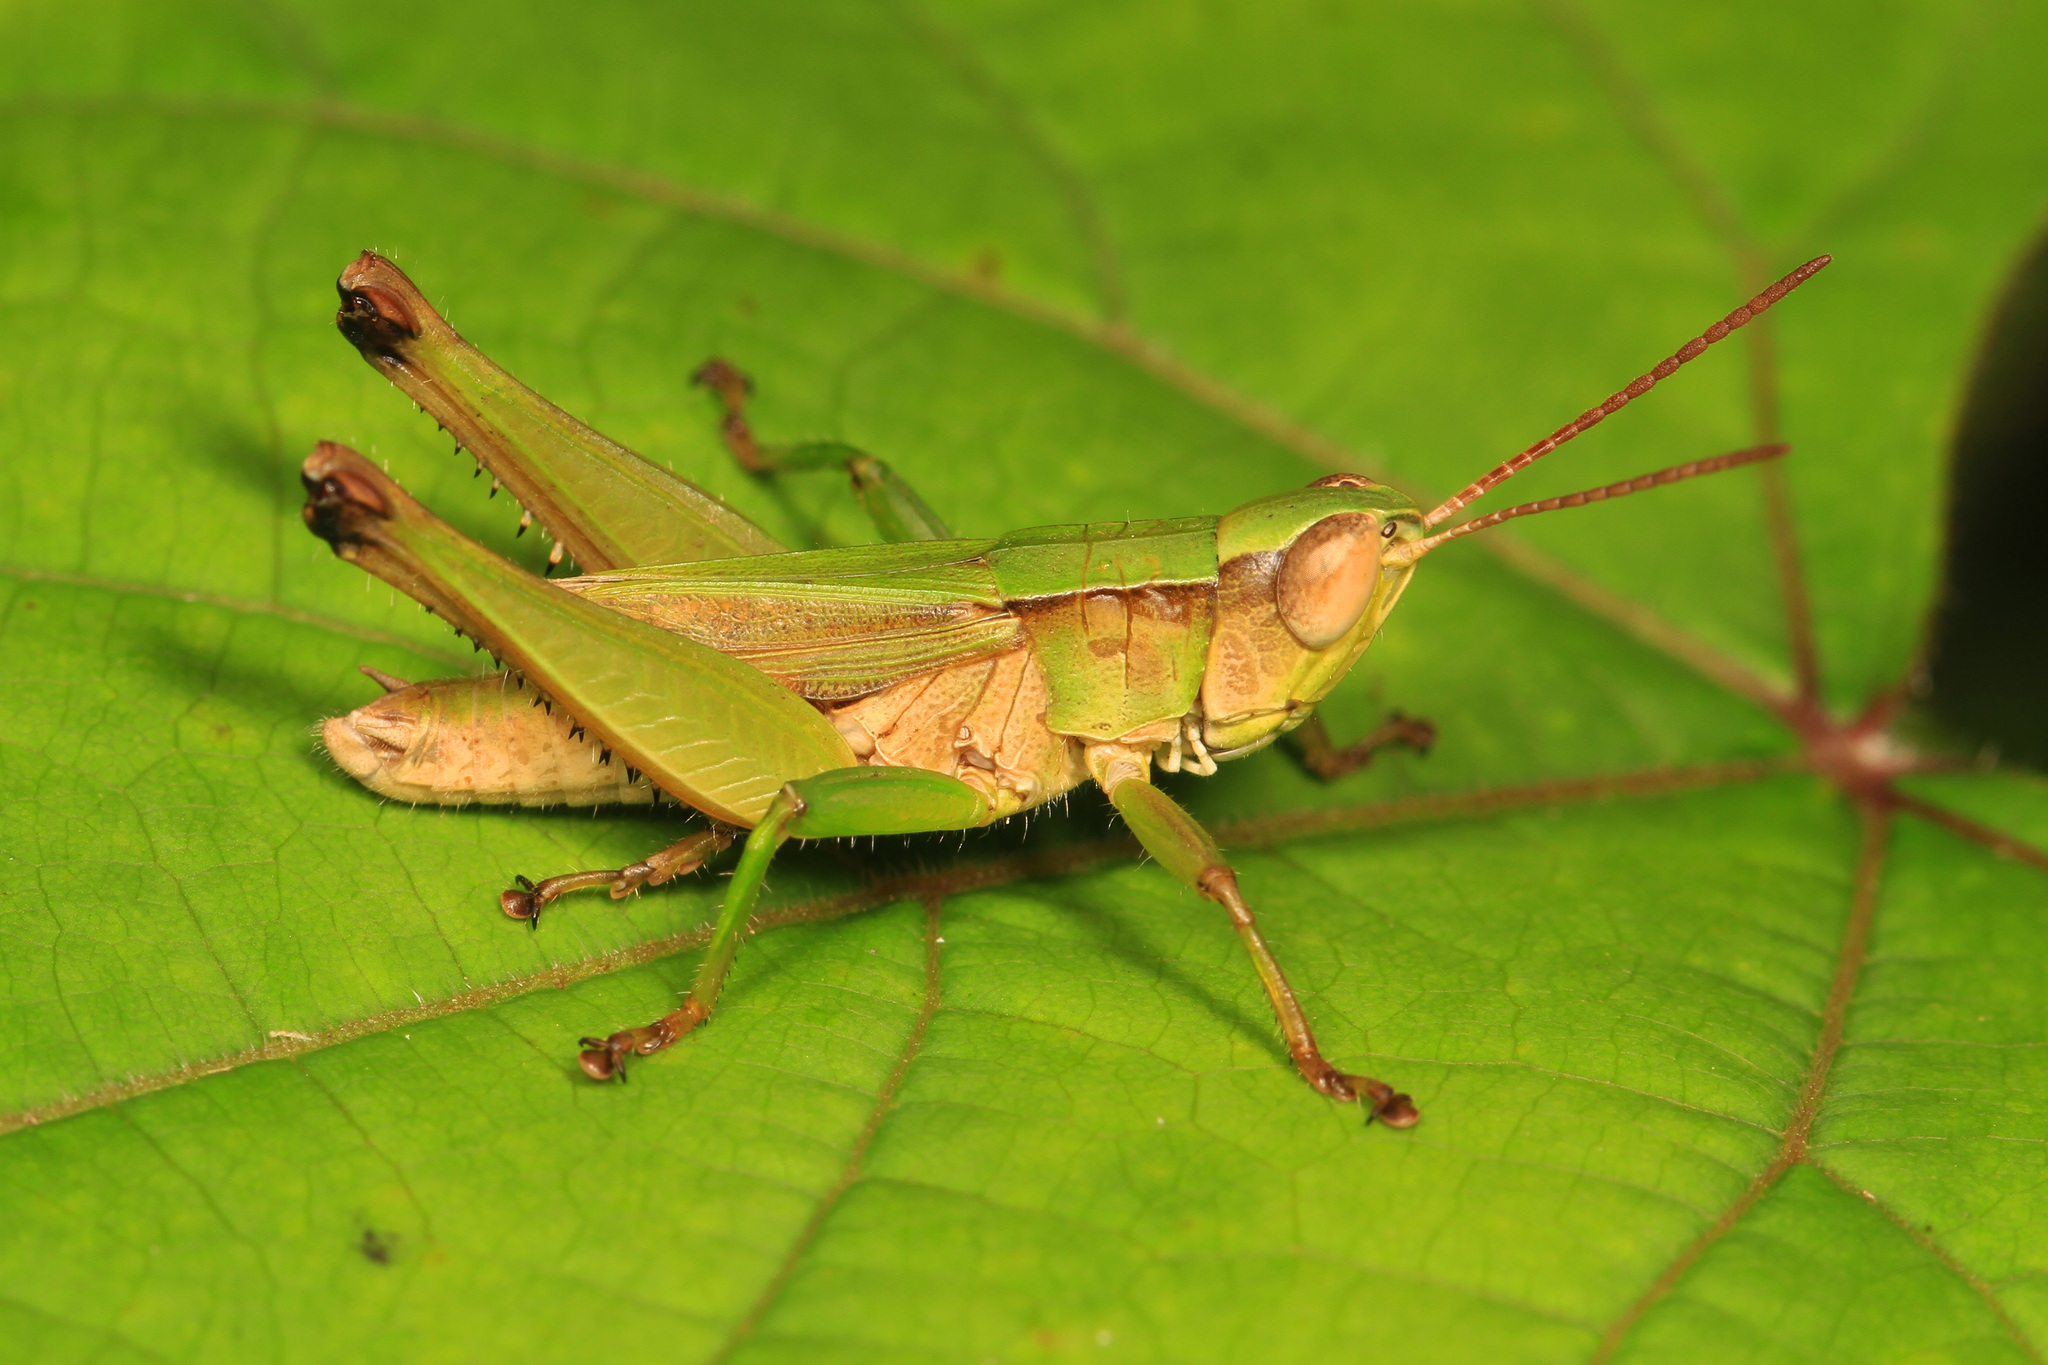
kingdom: Animalia
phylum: Arthropoda
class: Insecta
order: Orthoptera
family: Acrididae
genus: Dichromorpha
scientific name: Dichromorpha viridis
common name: Short-winged green grasshopper
